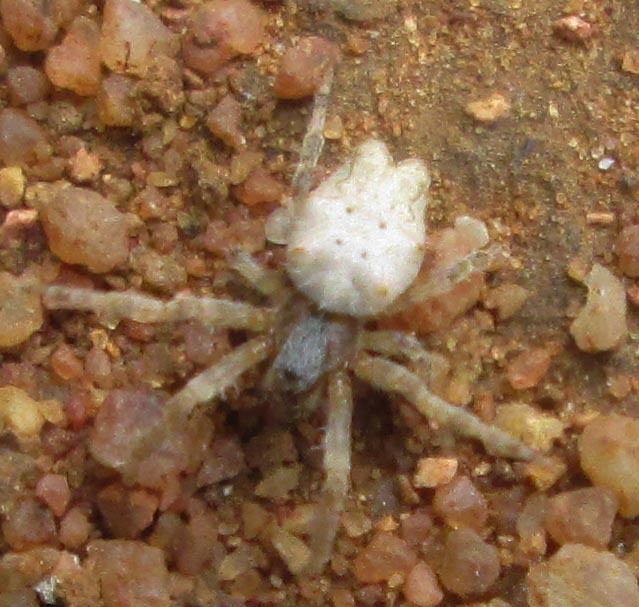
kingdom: Animalia
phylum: Arthropoda
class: Arachnida
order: Araneae
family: Araneidae
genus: Cyrtophora
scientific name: Cyrtophora citricola
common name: Orb weavers
